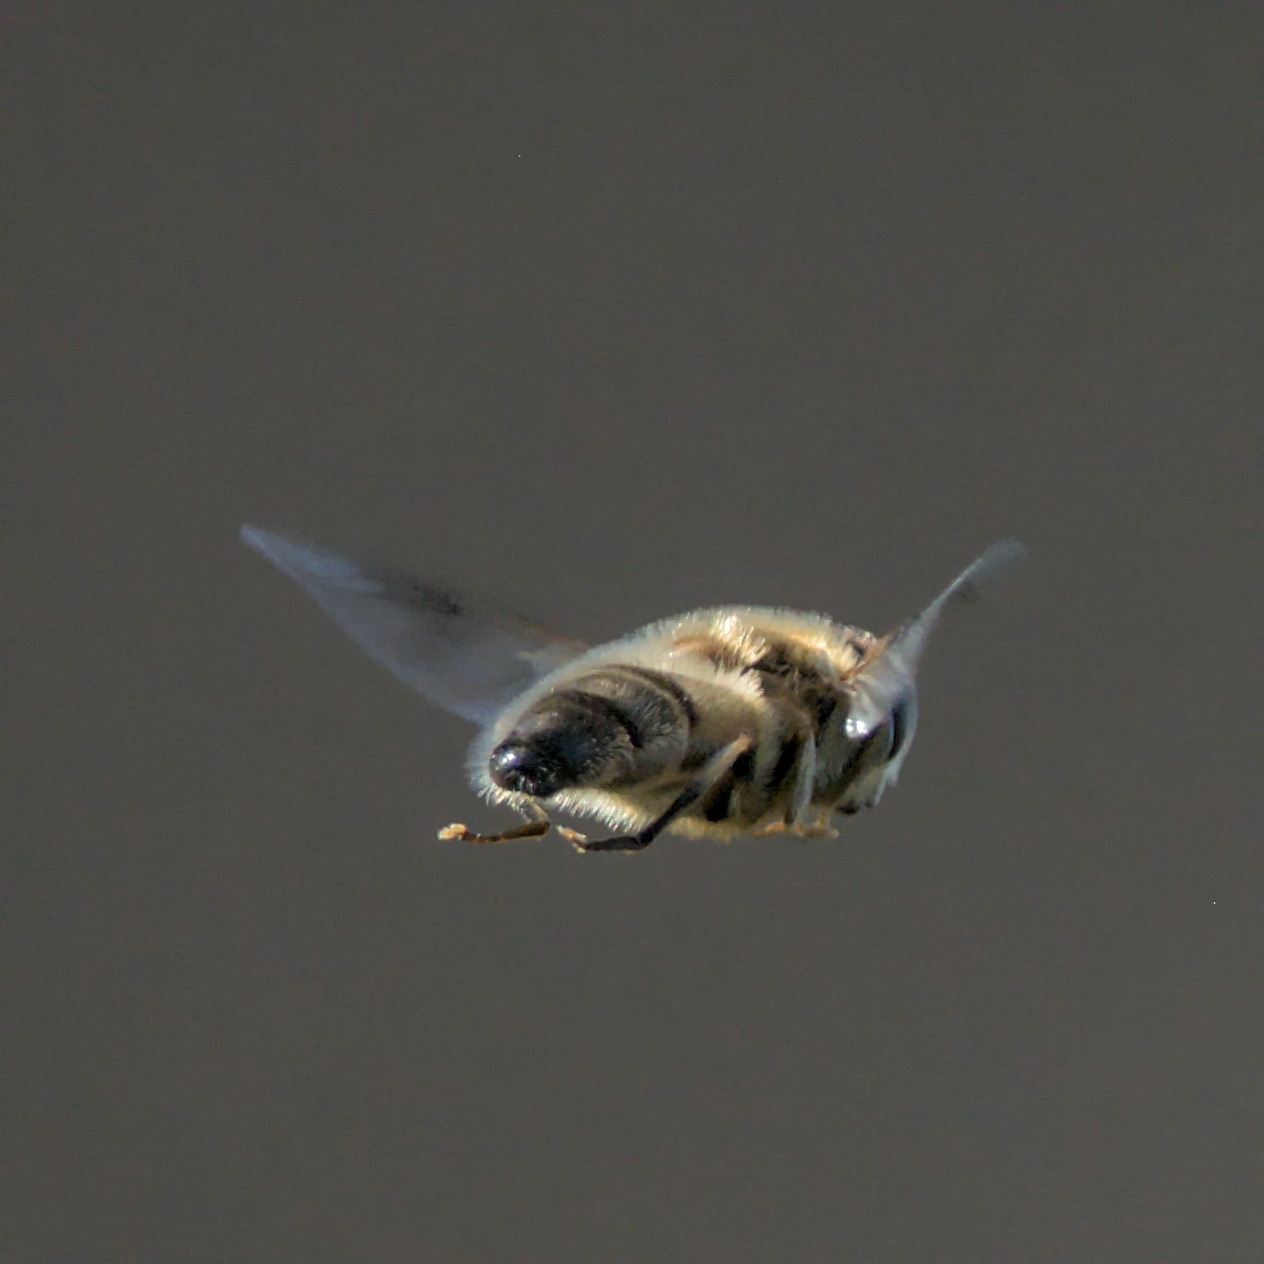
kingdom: Animalia
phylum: Arthropoda
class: Insecta
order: Diptera
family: Syrphidae
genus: Eristalis
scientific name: Eristalis pertinax
